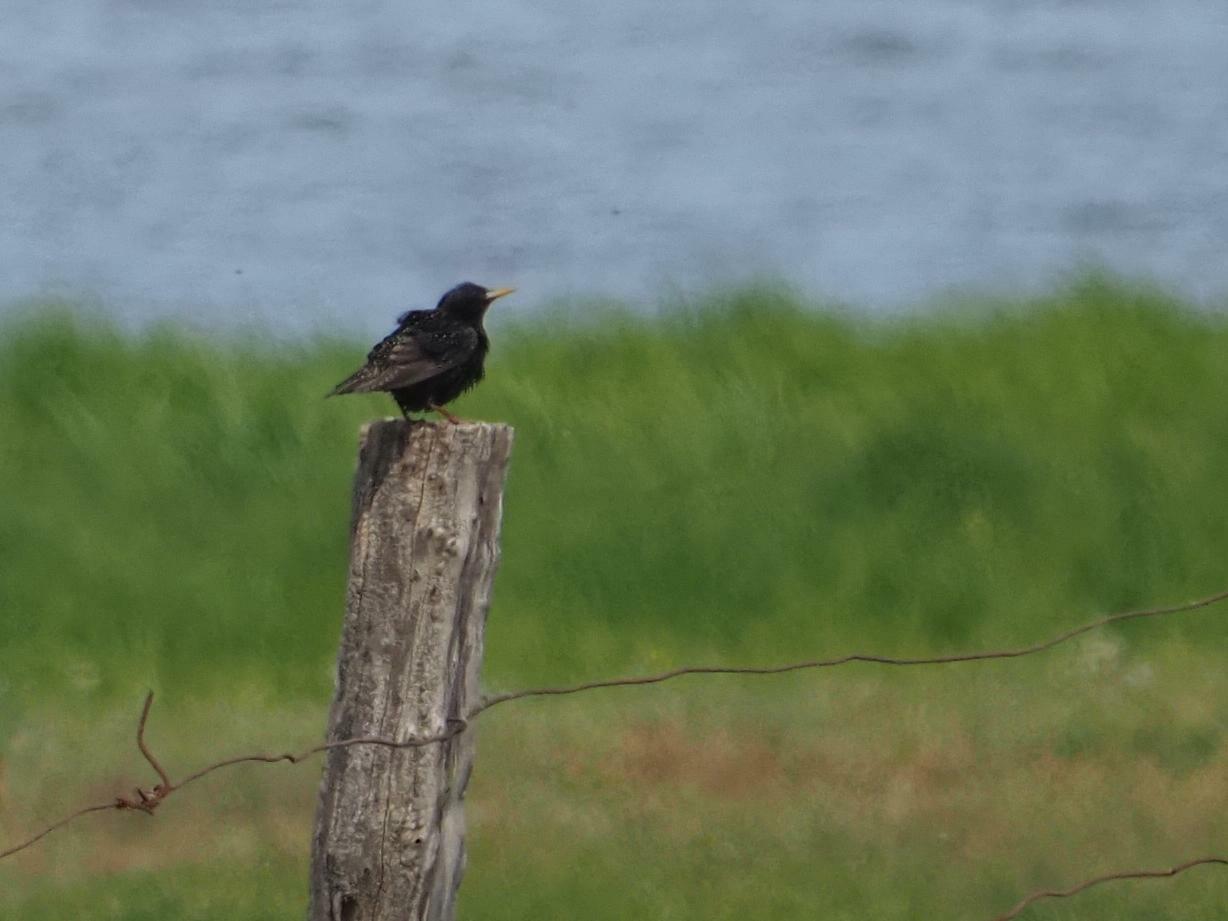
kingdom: Animalia
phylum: Chordata
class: Aves
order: Passeriformes
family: Sturnidae
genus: Sturnus
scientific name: Sturnus vulgaris
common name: Common starling
